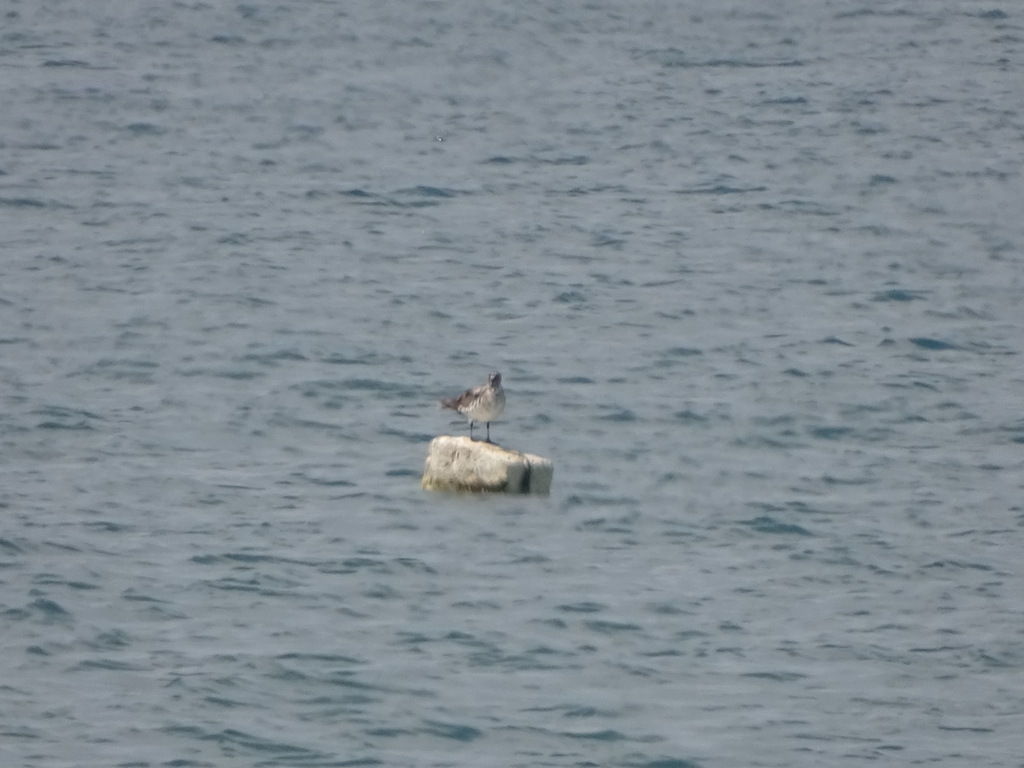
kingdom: Animalia
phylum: Chordata
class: Aves
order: Charadriiformes
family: Stercorariidae
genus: Stercorarius
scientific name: Stercorarius parasiticus
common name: Parasitic jaeger
